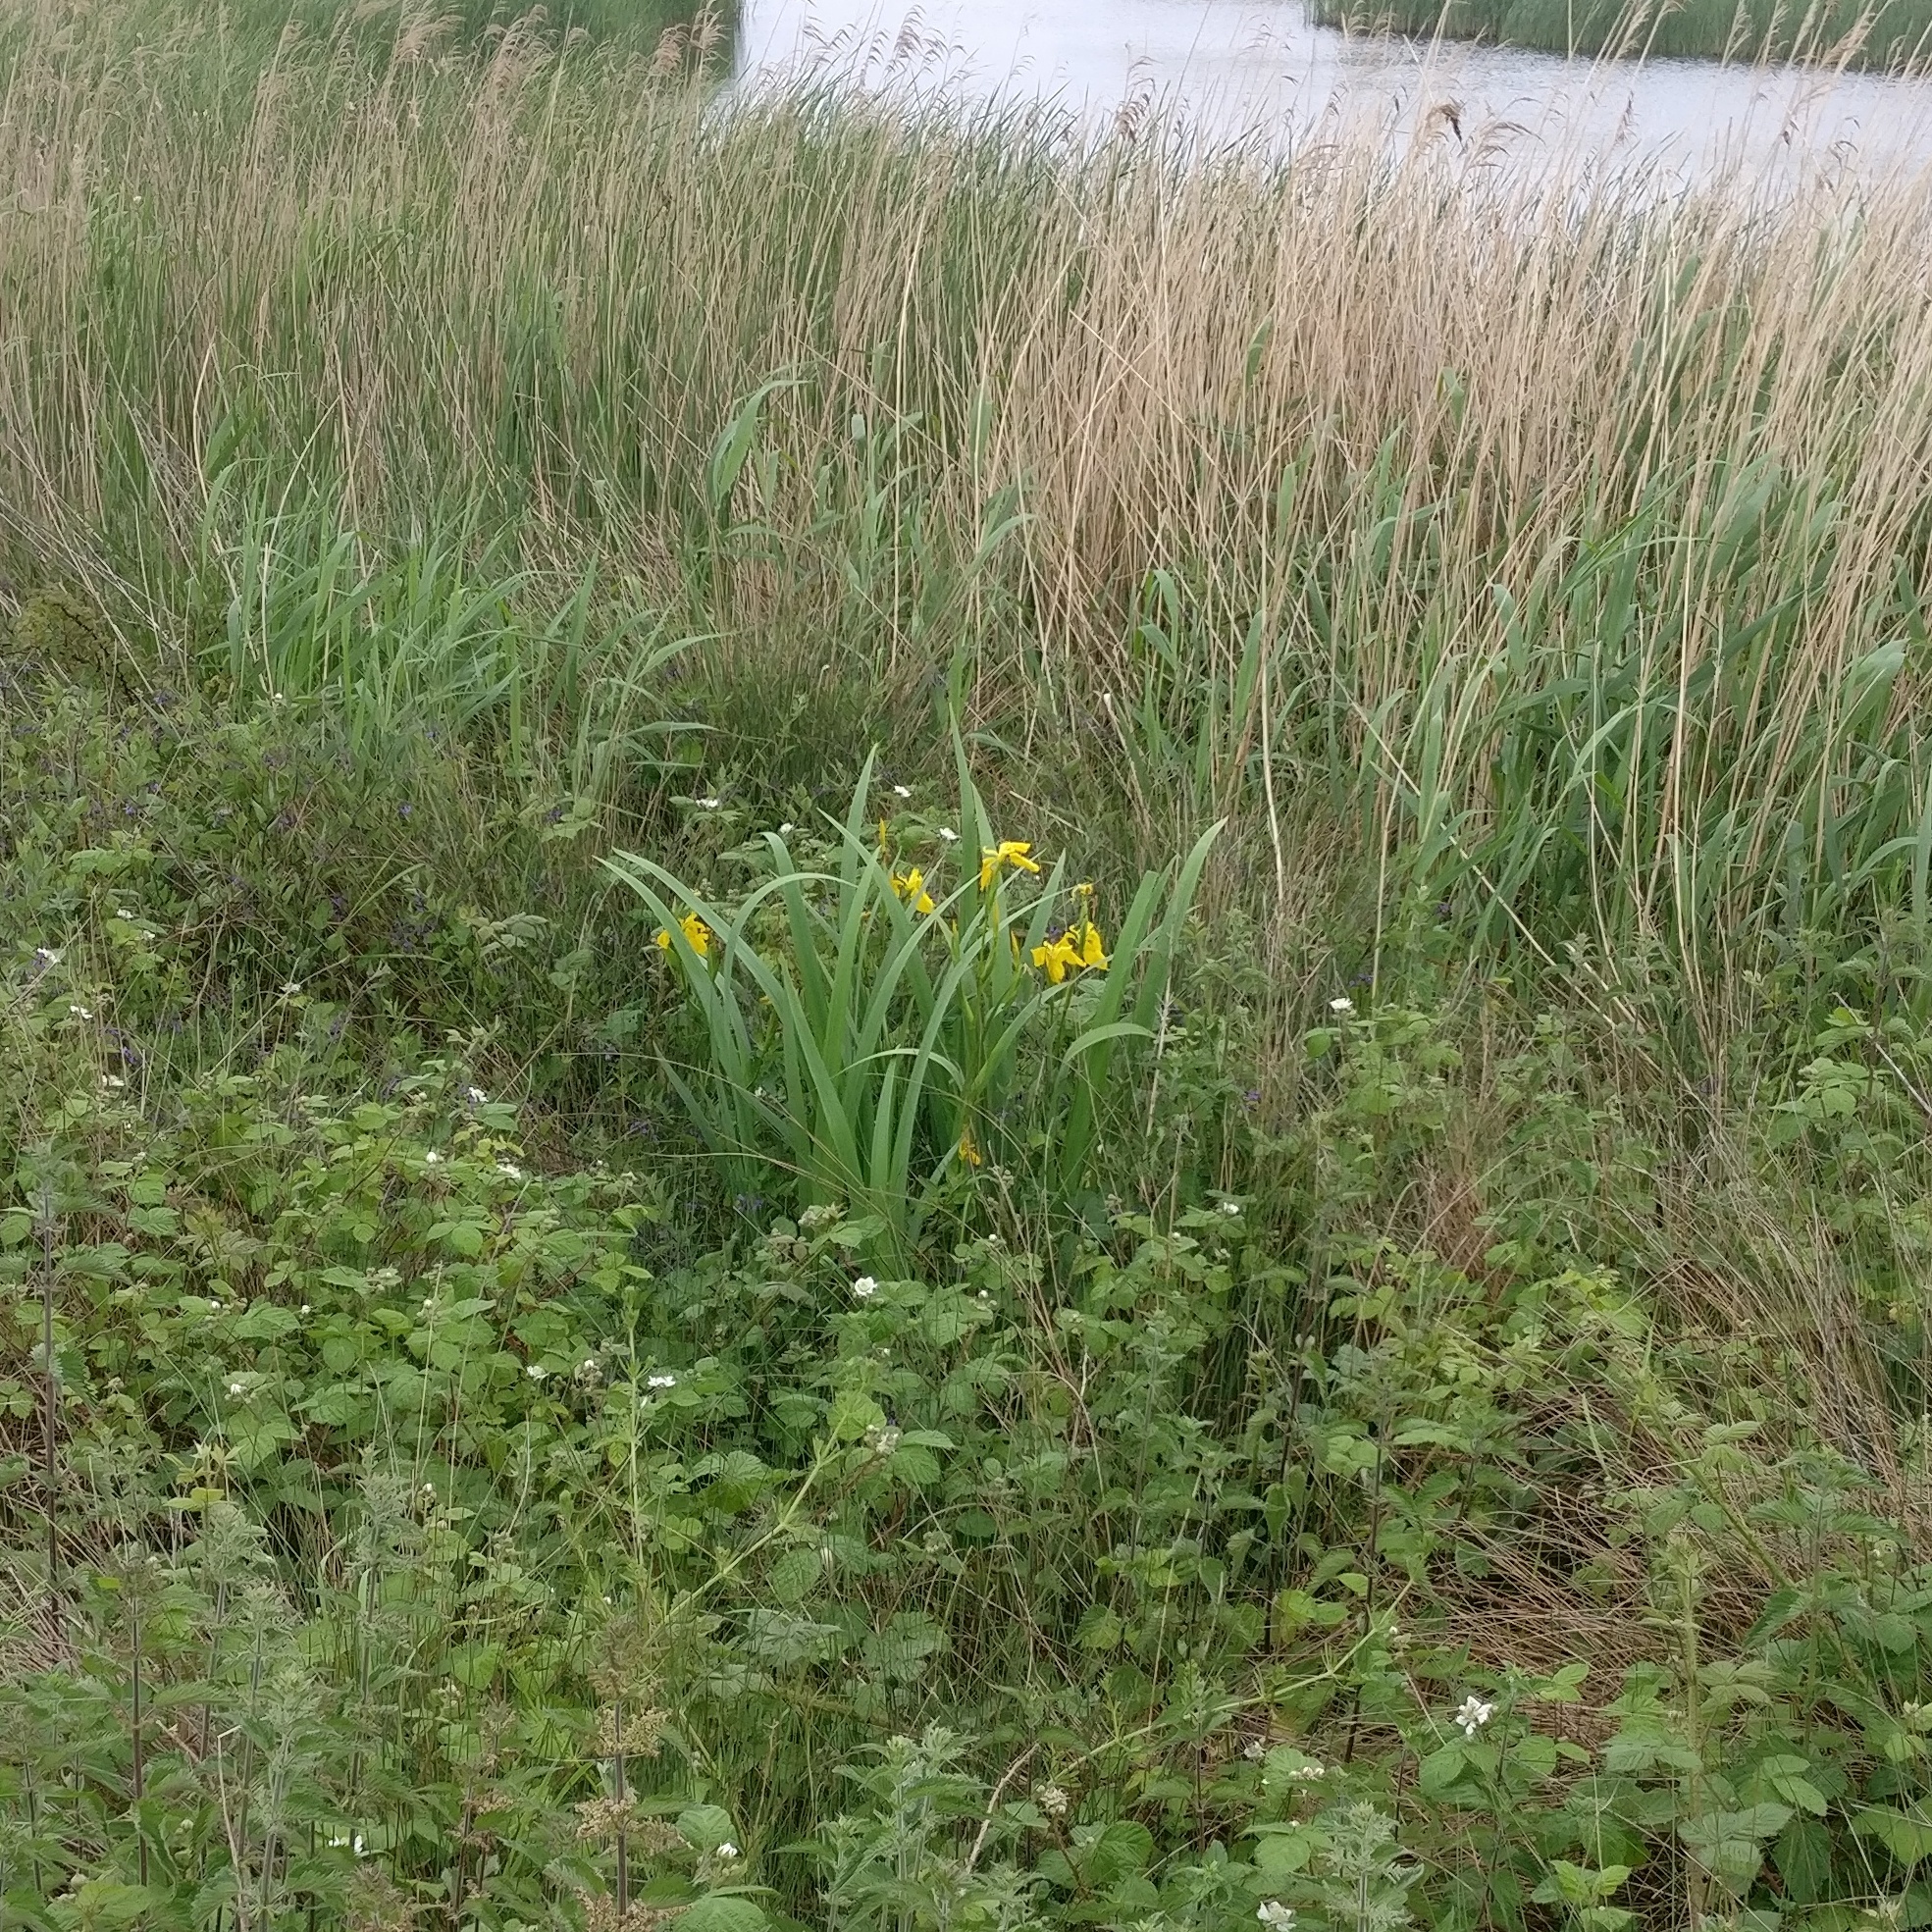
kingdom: Plantae
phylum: Tracheophyta
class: Liliopsida
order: Asparagales
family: Iridaceae
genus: Iris
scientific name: Iris pseudacorus
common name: Yellow flag
